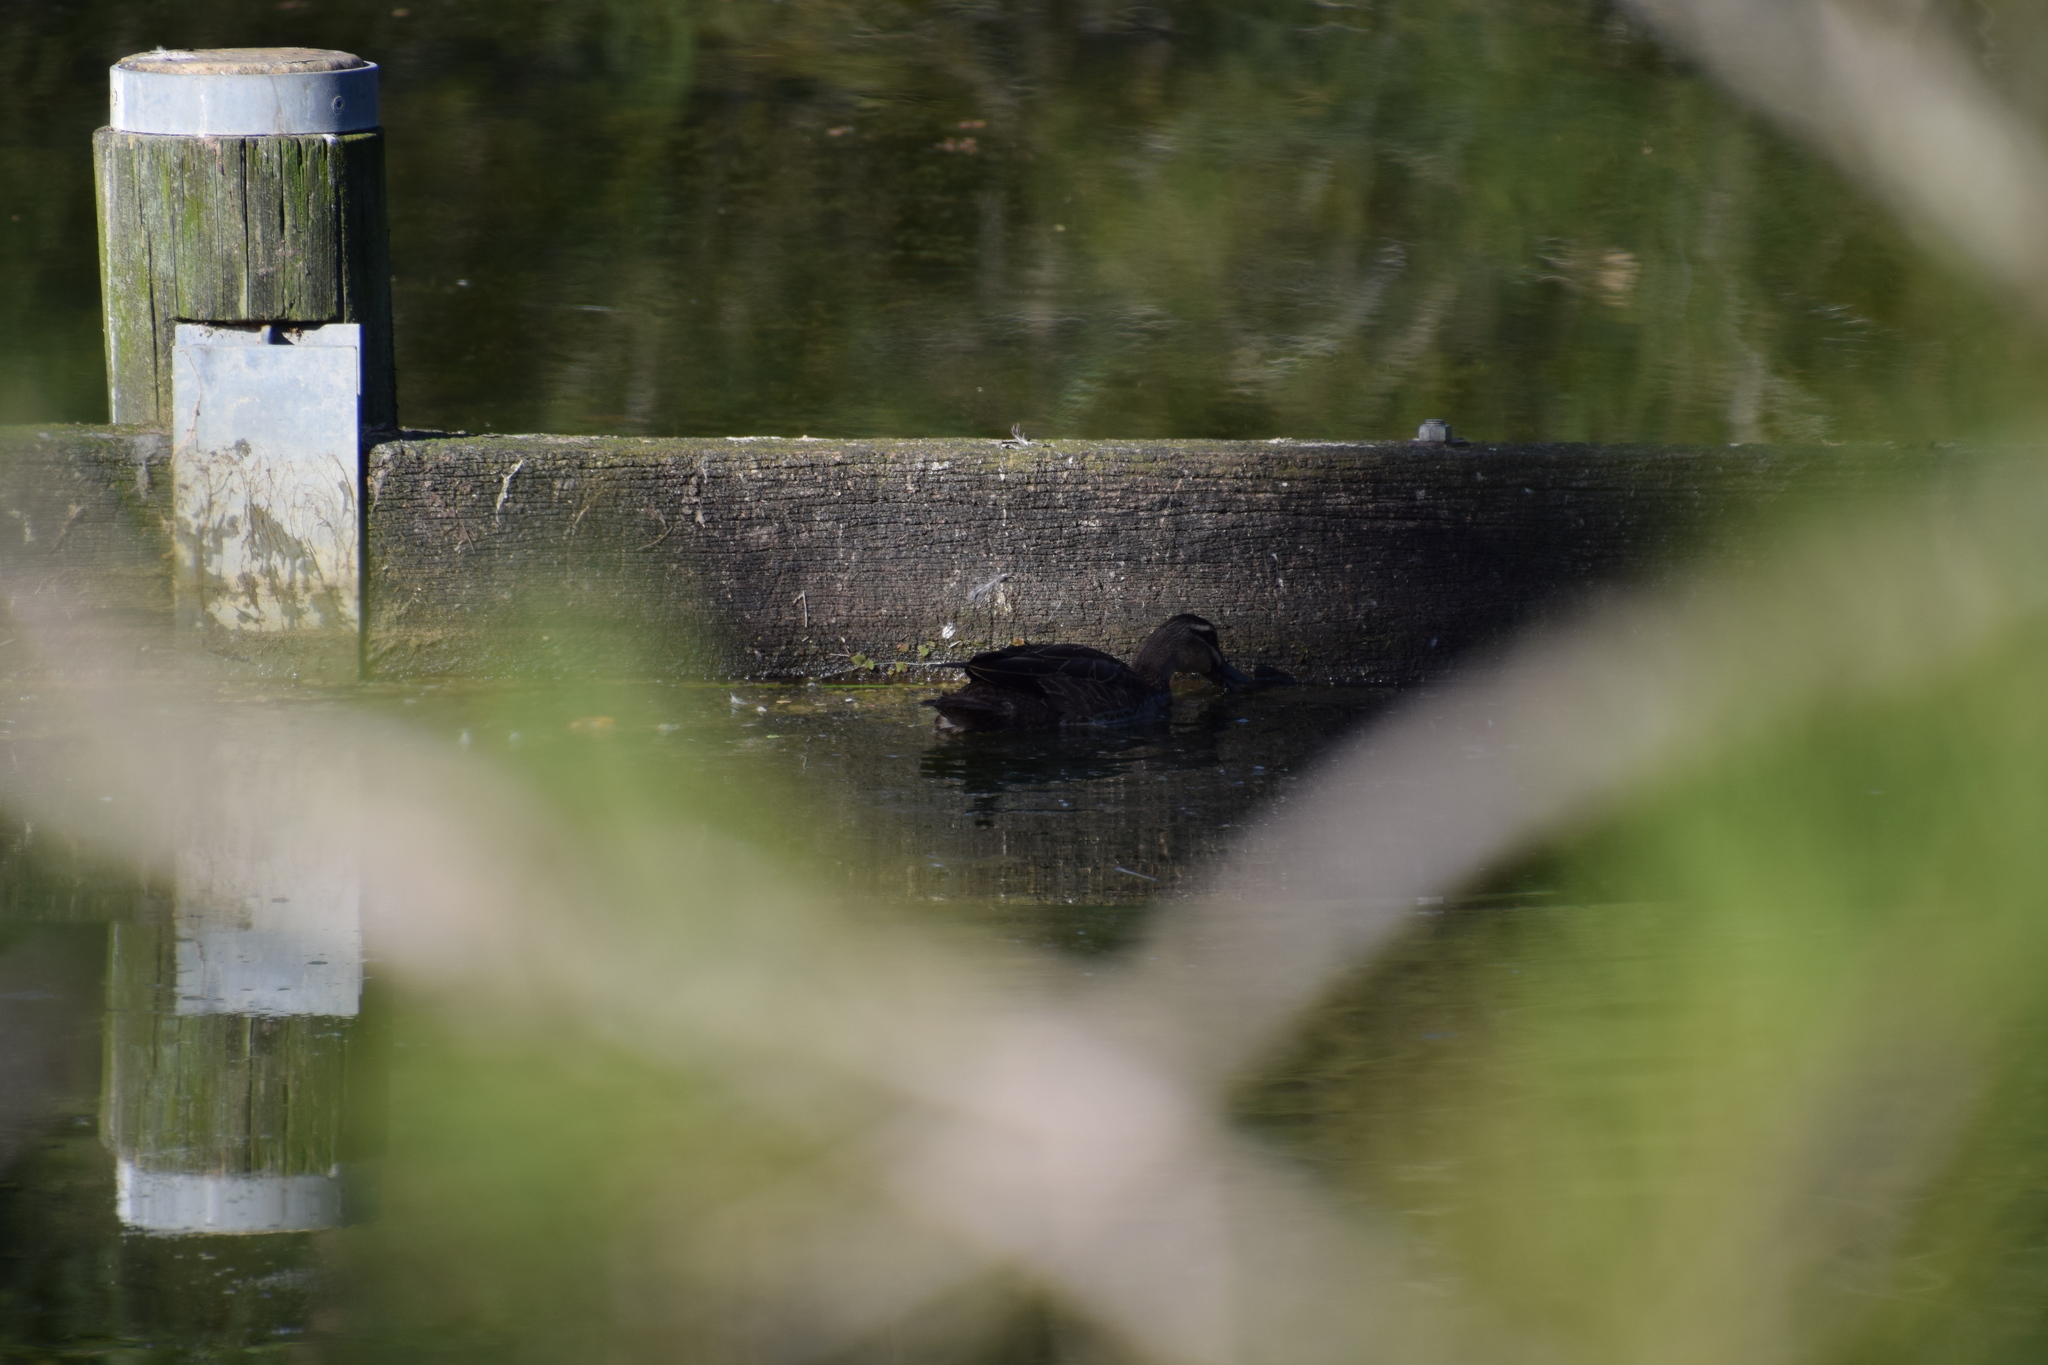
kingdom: Animalia
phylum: Chordata
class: Aves
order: Anseriformes
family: Anatidae
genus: Anas
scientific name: Anas superciliosa
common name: Pacific black duck
